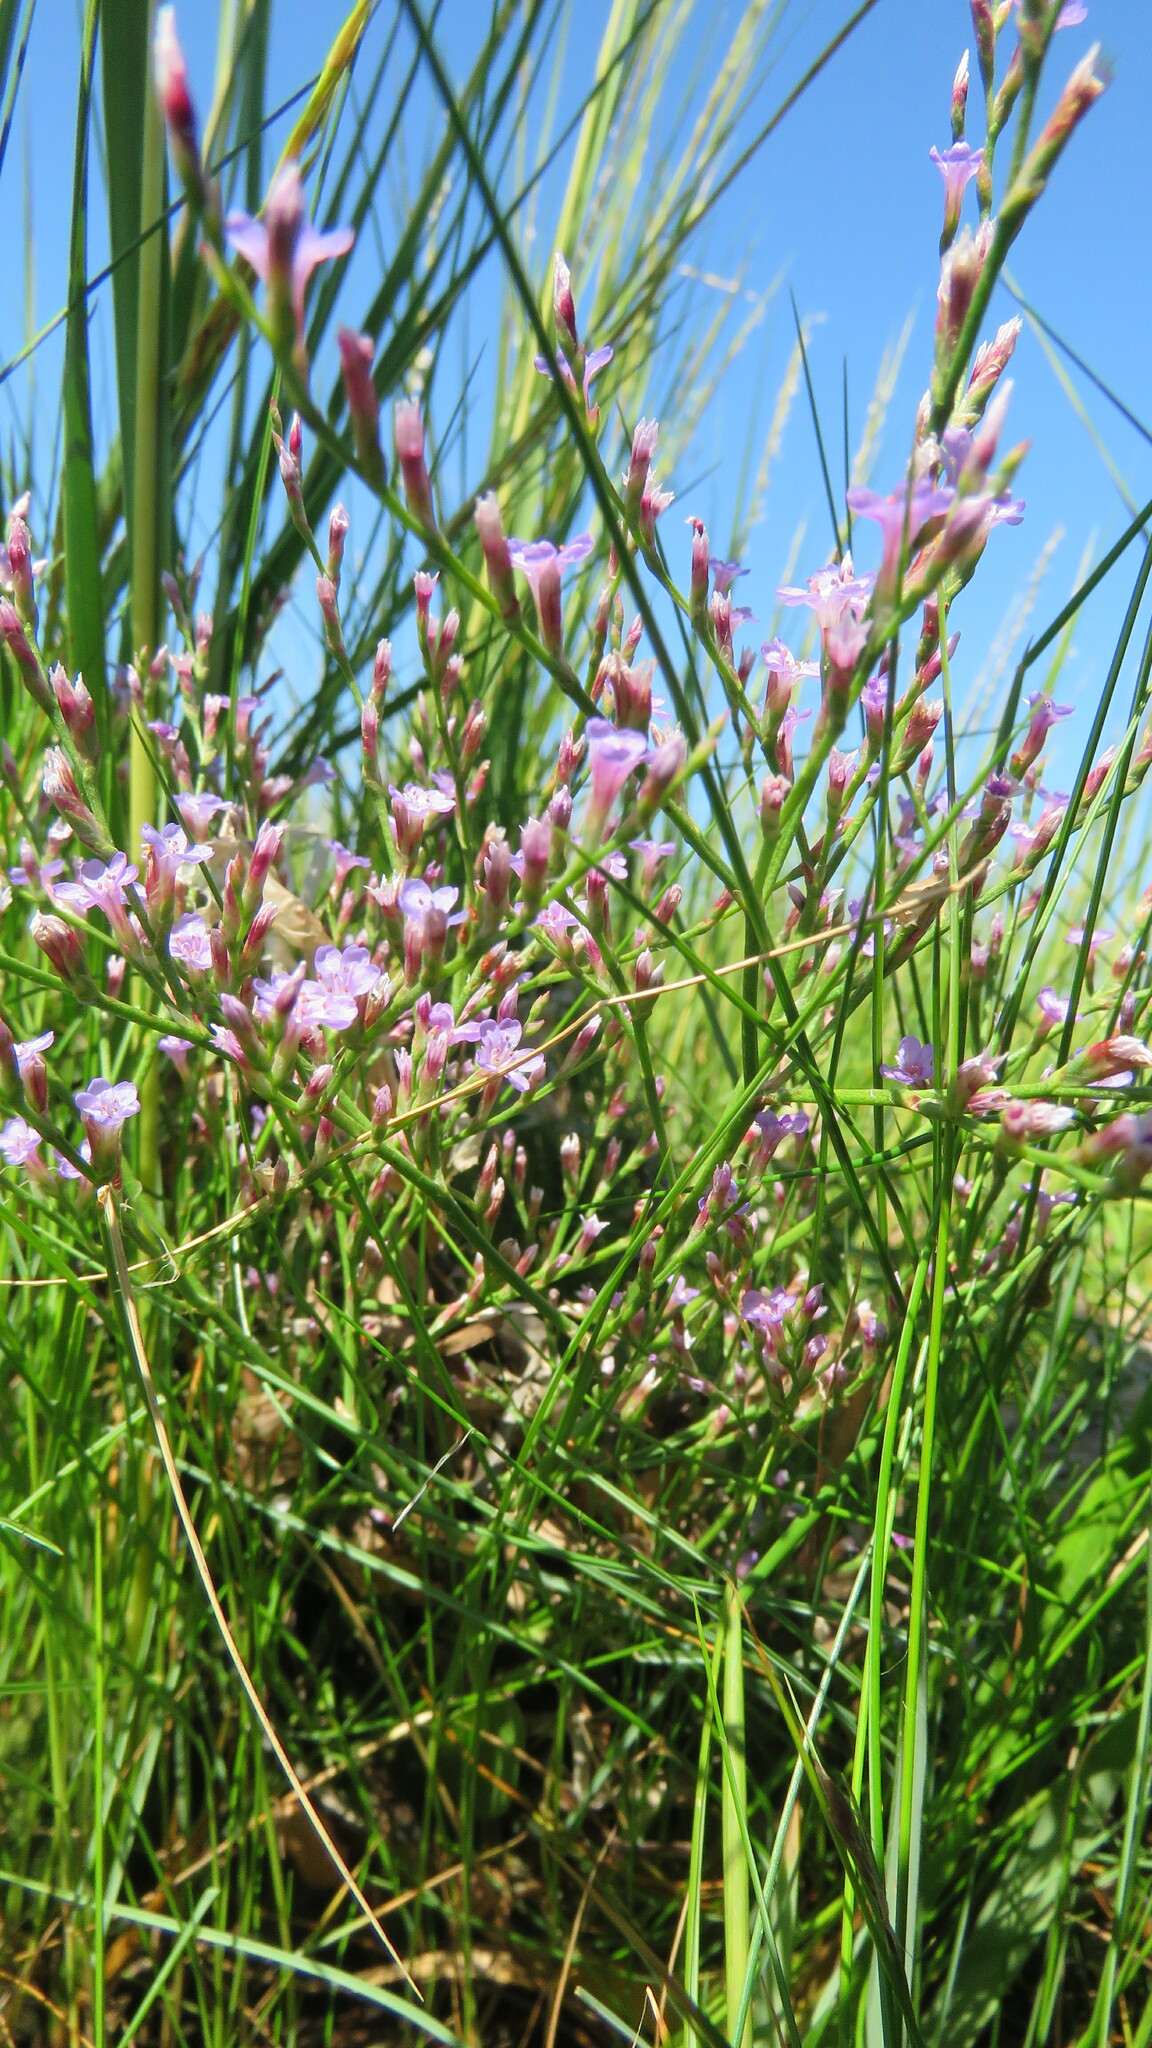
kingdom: Plantae
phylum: Tracheophyta
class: Magnoliopsida
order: Caryophyllales
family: Plumbaginaceae
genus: Limonium
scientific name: Limonium carolinianum
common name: Carolina sea lavender
